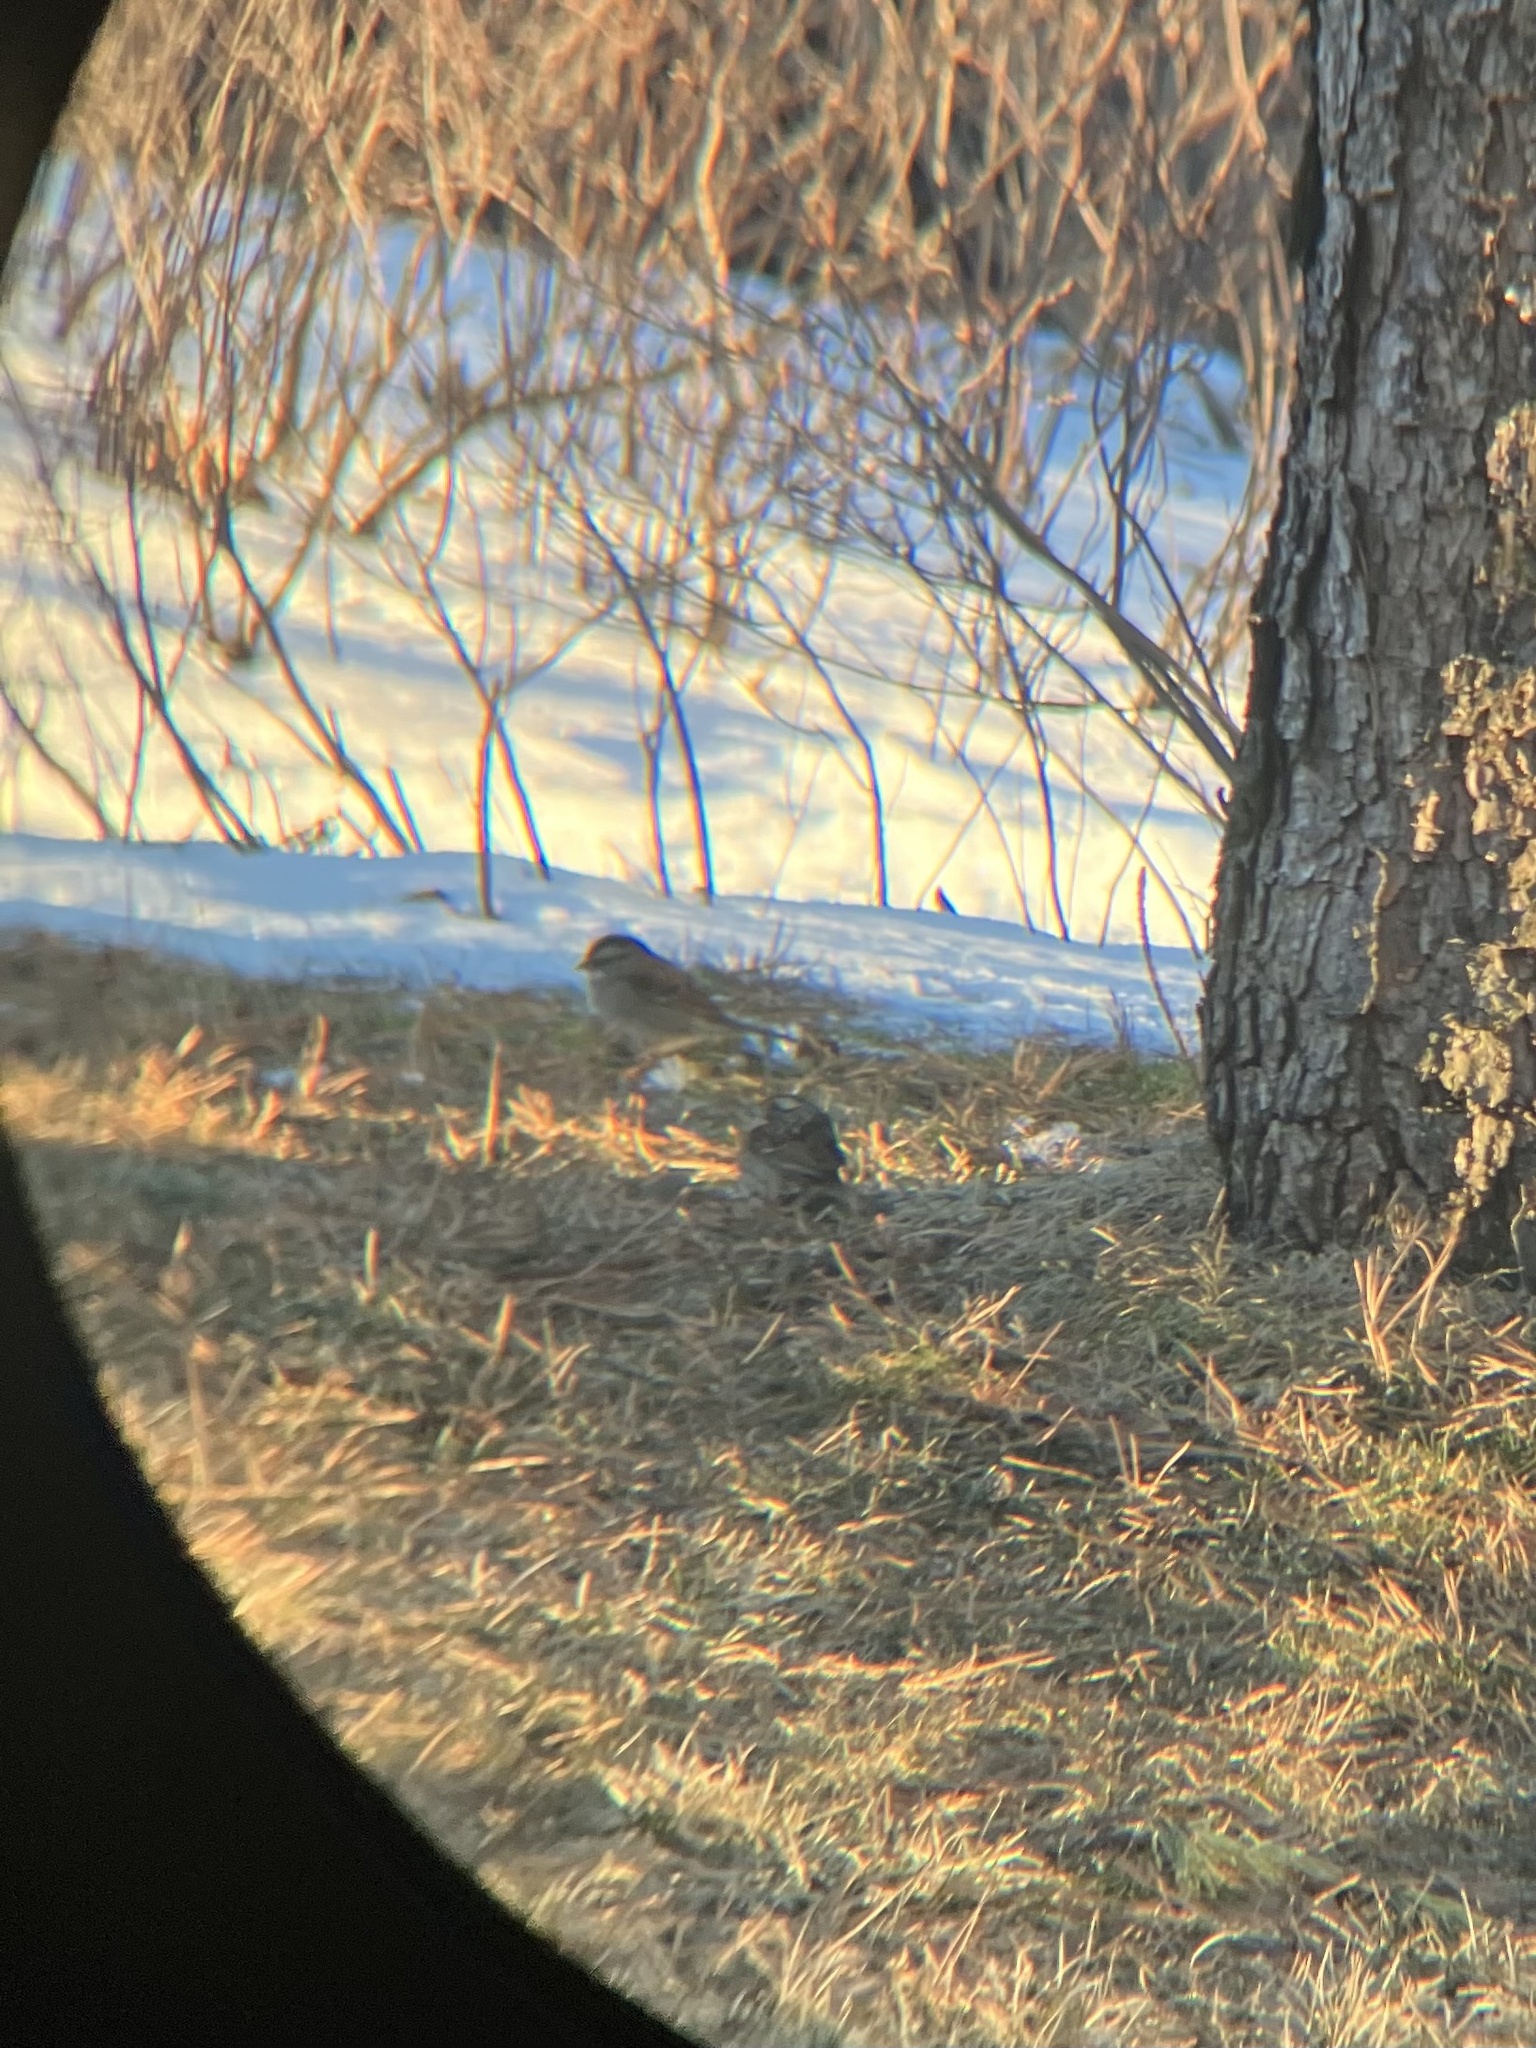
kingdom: Animalia
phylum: Chordata
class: Aves
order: Passeriformes
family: Passerellidae
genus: Zonotrichia
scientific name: Zonotrichia albicollis
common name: White-throated sparrow
